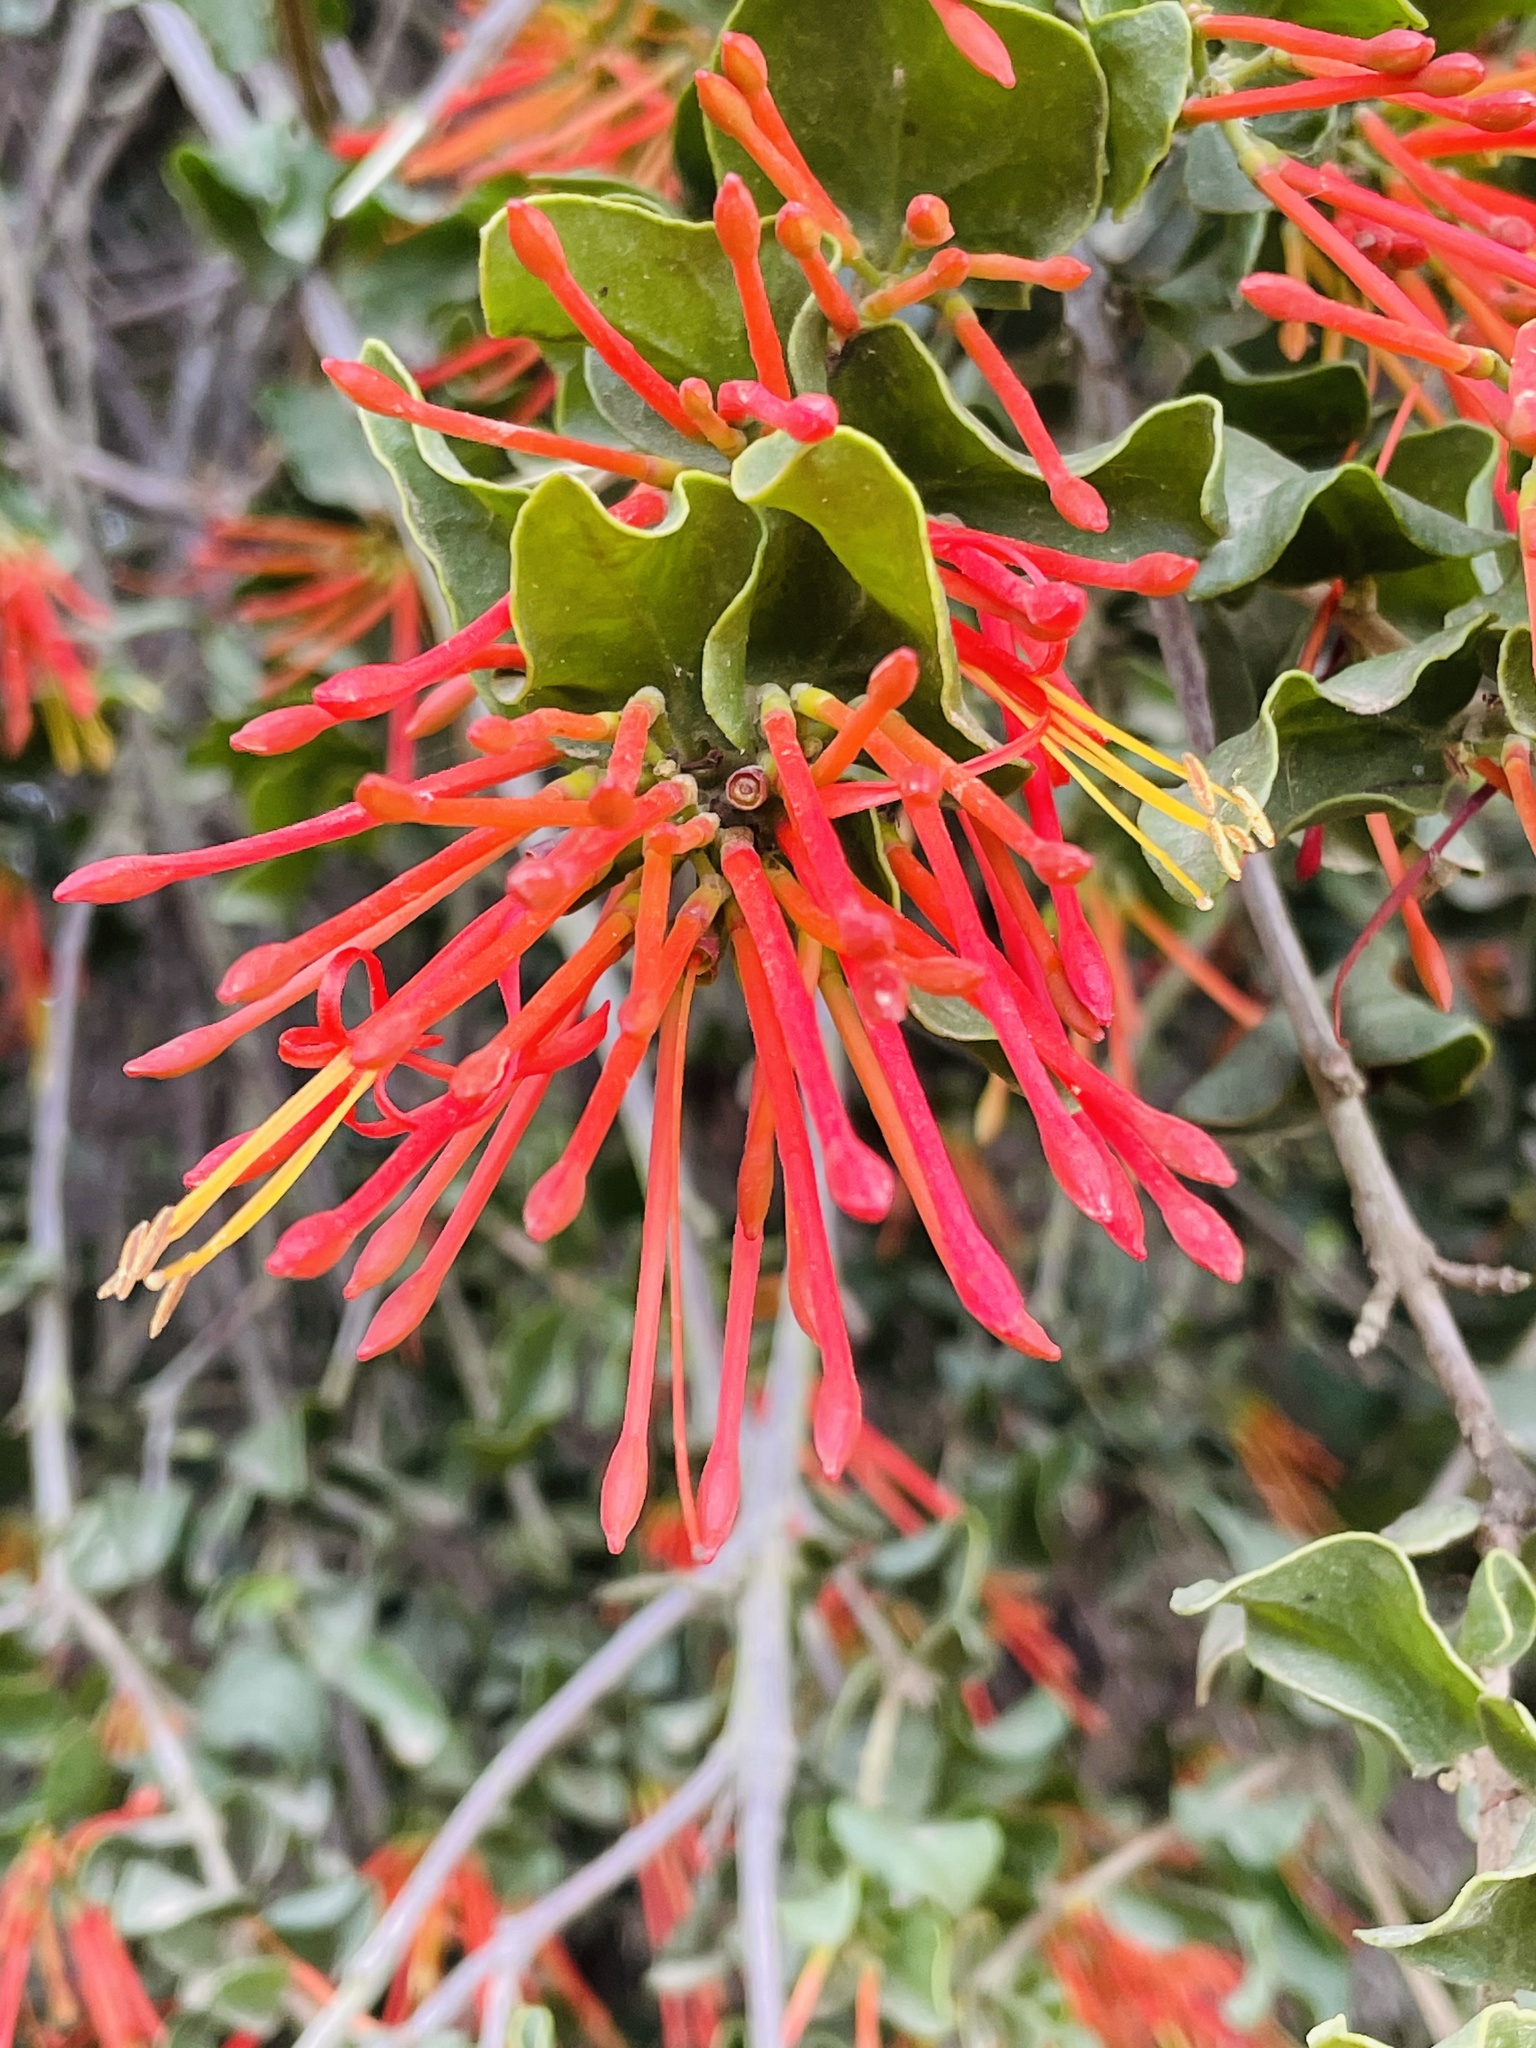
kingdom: Plantae
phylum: Tracheophyta
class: Magnoliopsida
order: Santalales
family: Loranthaceae
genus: Tristerix
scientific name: Tristerix corymbosus
